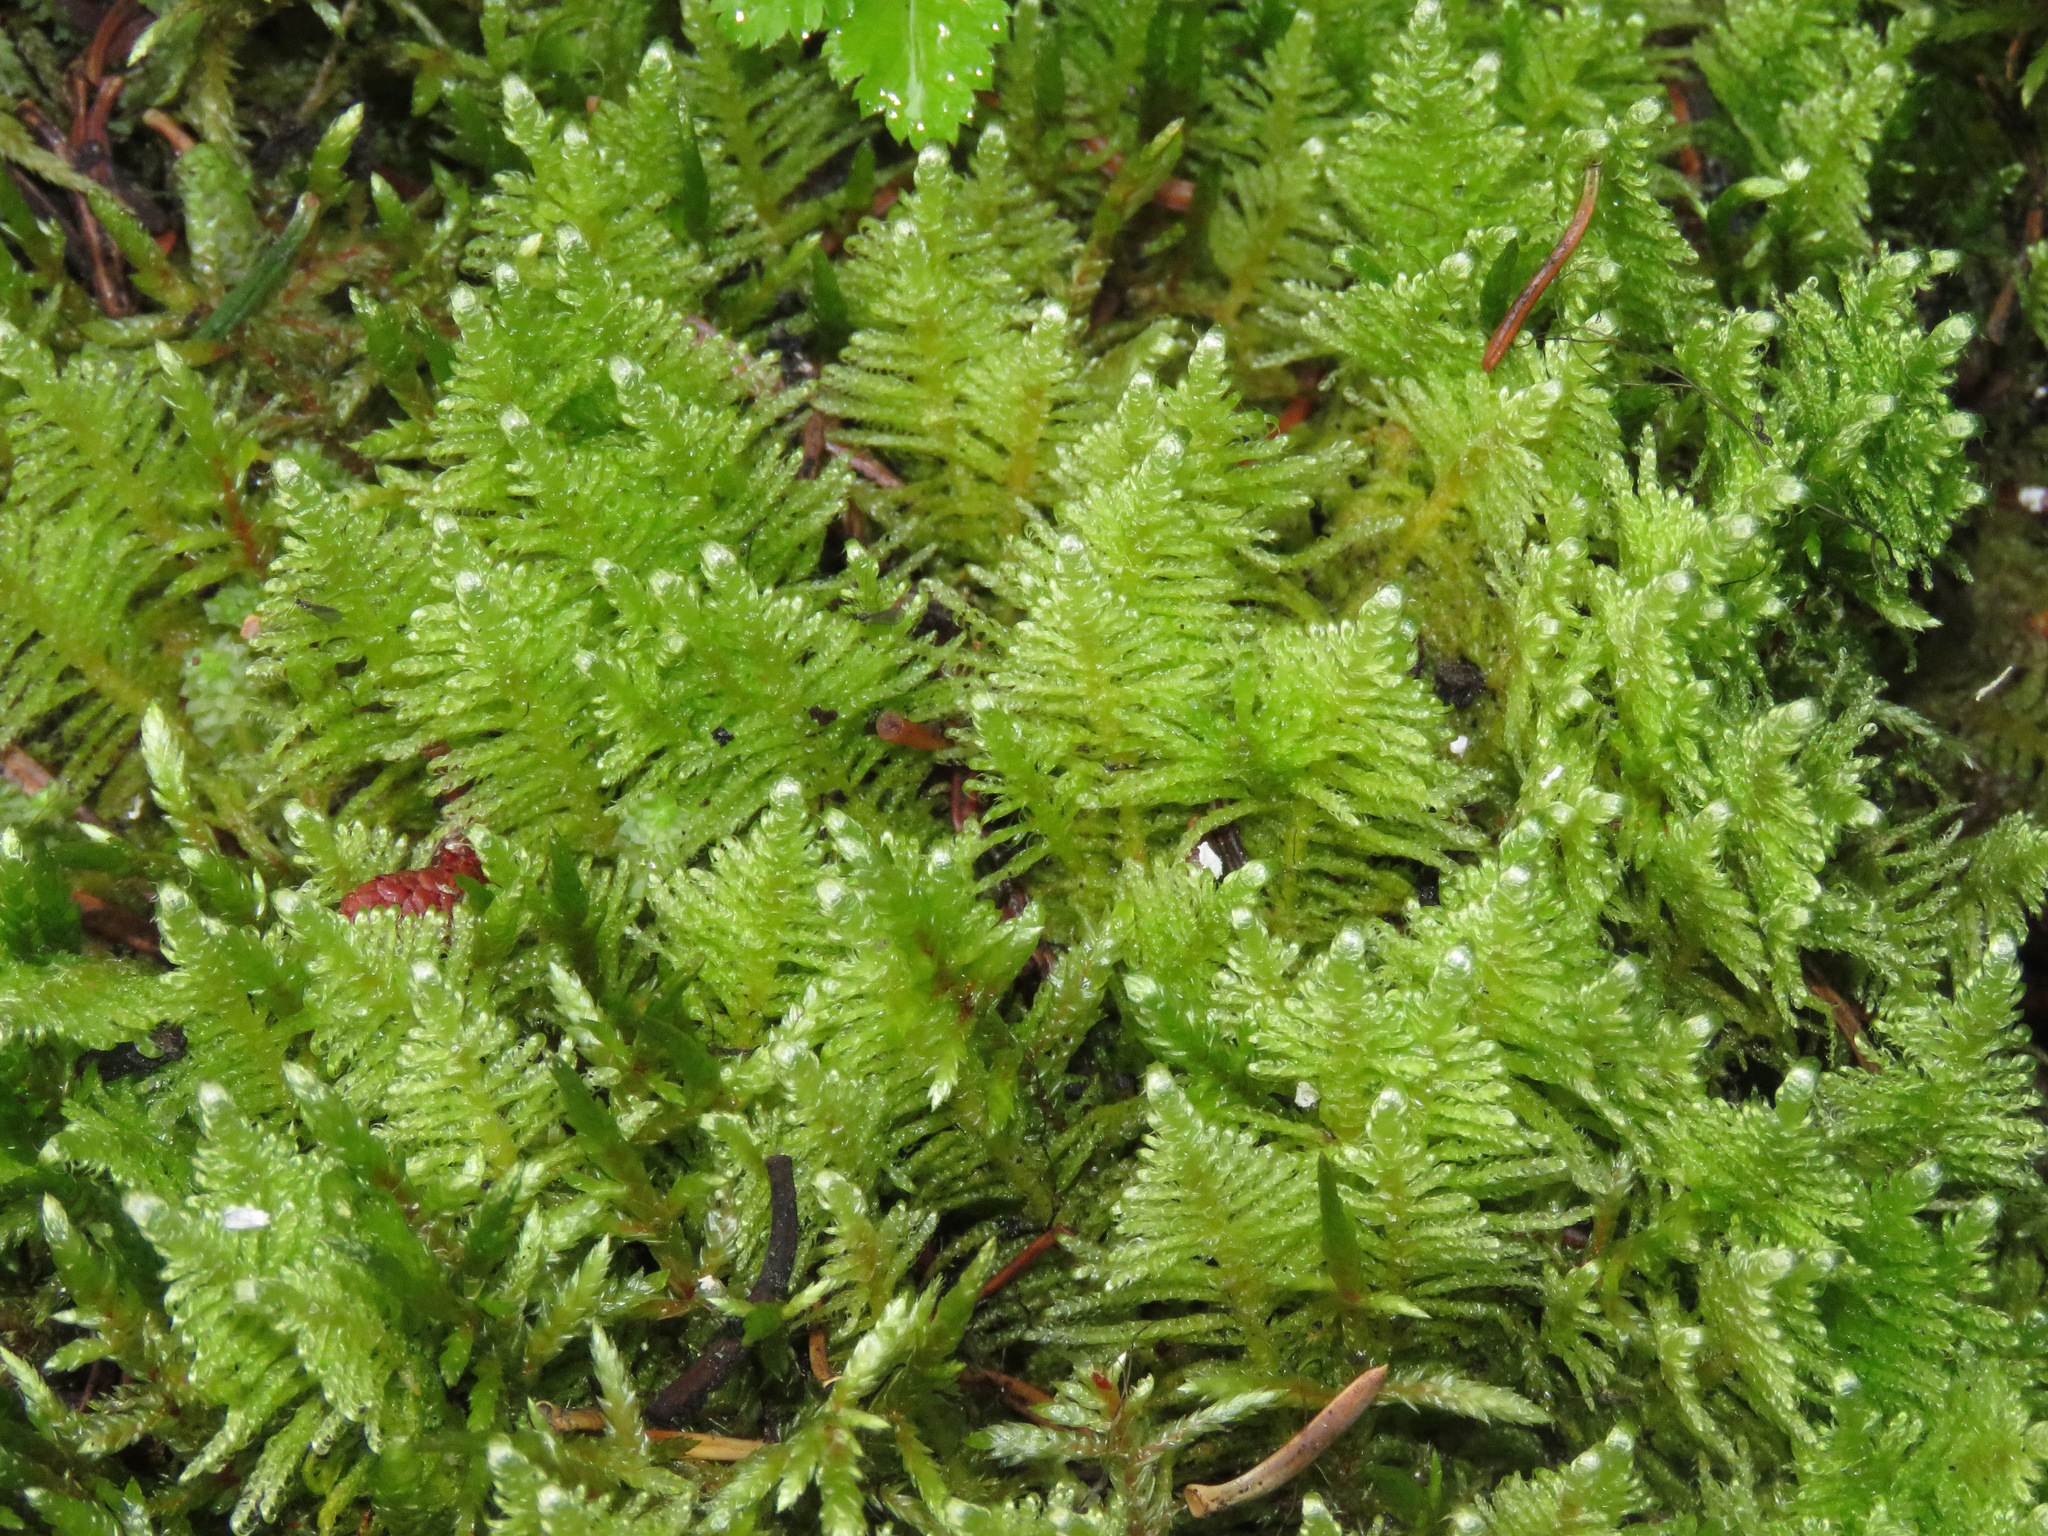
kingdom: Plantae
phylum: Bryophyta
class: Bryopsida
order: Hypnales
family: Pylaisiaceae
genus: Ptilium
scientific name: Ptilium crista-castrensis
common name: Knight's plume moss
